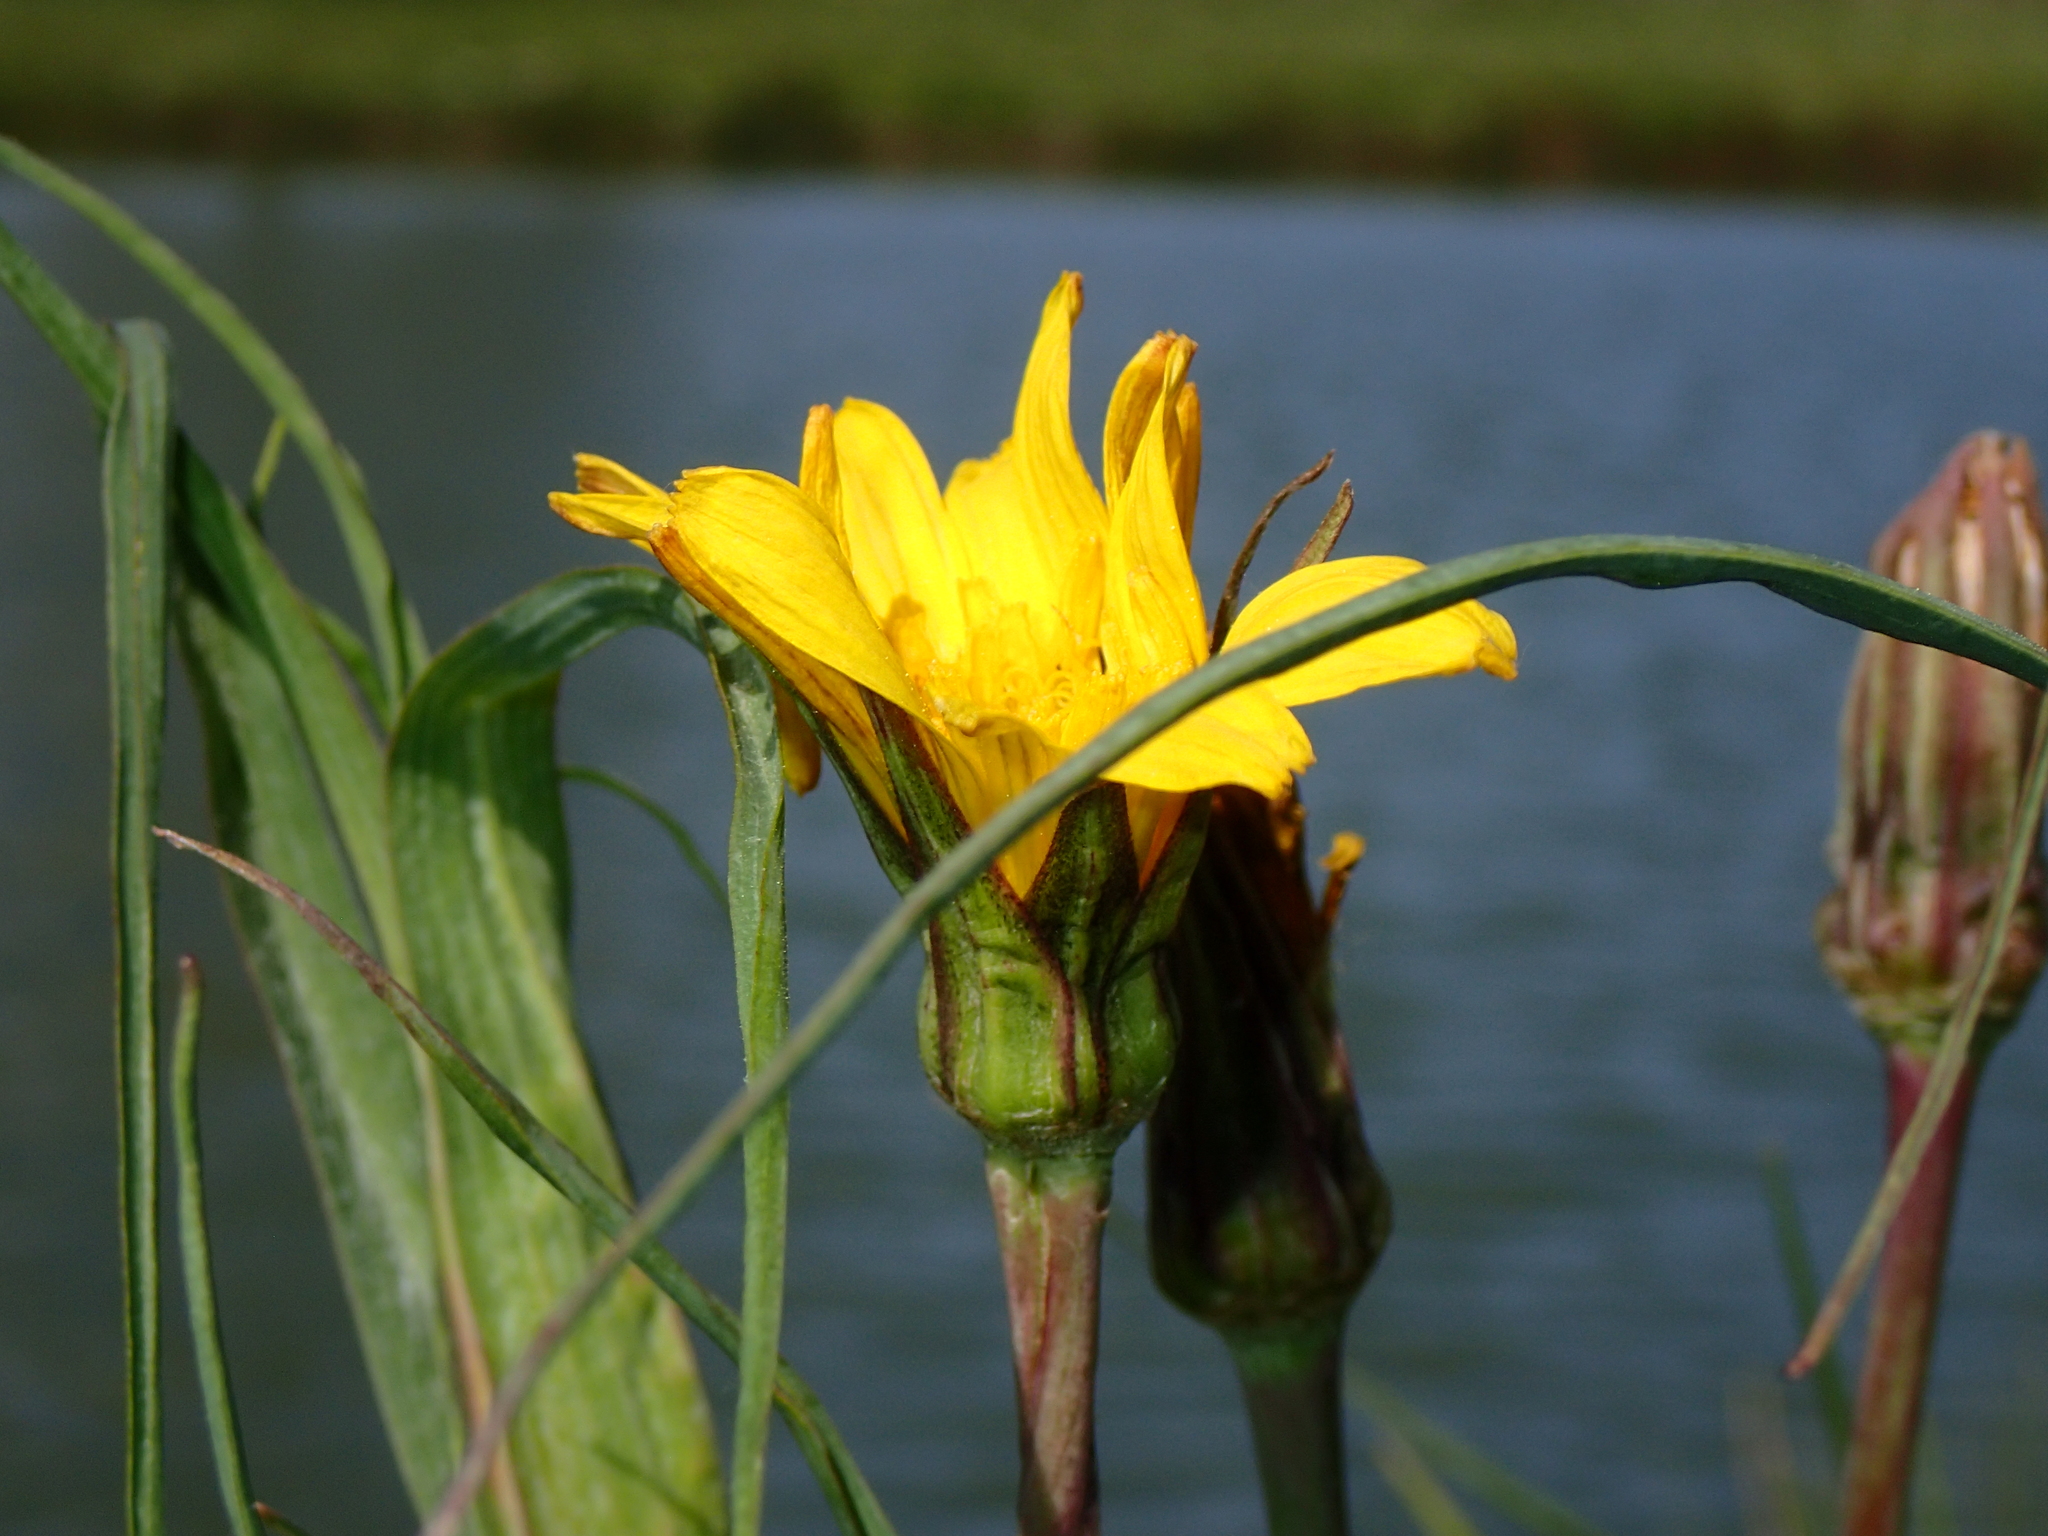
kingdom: Plantae
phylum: Tracheophyta
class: Magnoliopsida
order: Asterales
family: Asteraceae
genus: Tragopogon
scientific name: Tragopogon pratensis
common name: Goat's-beard
